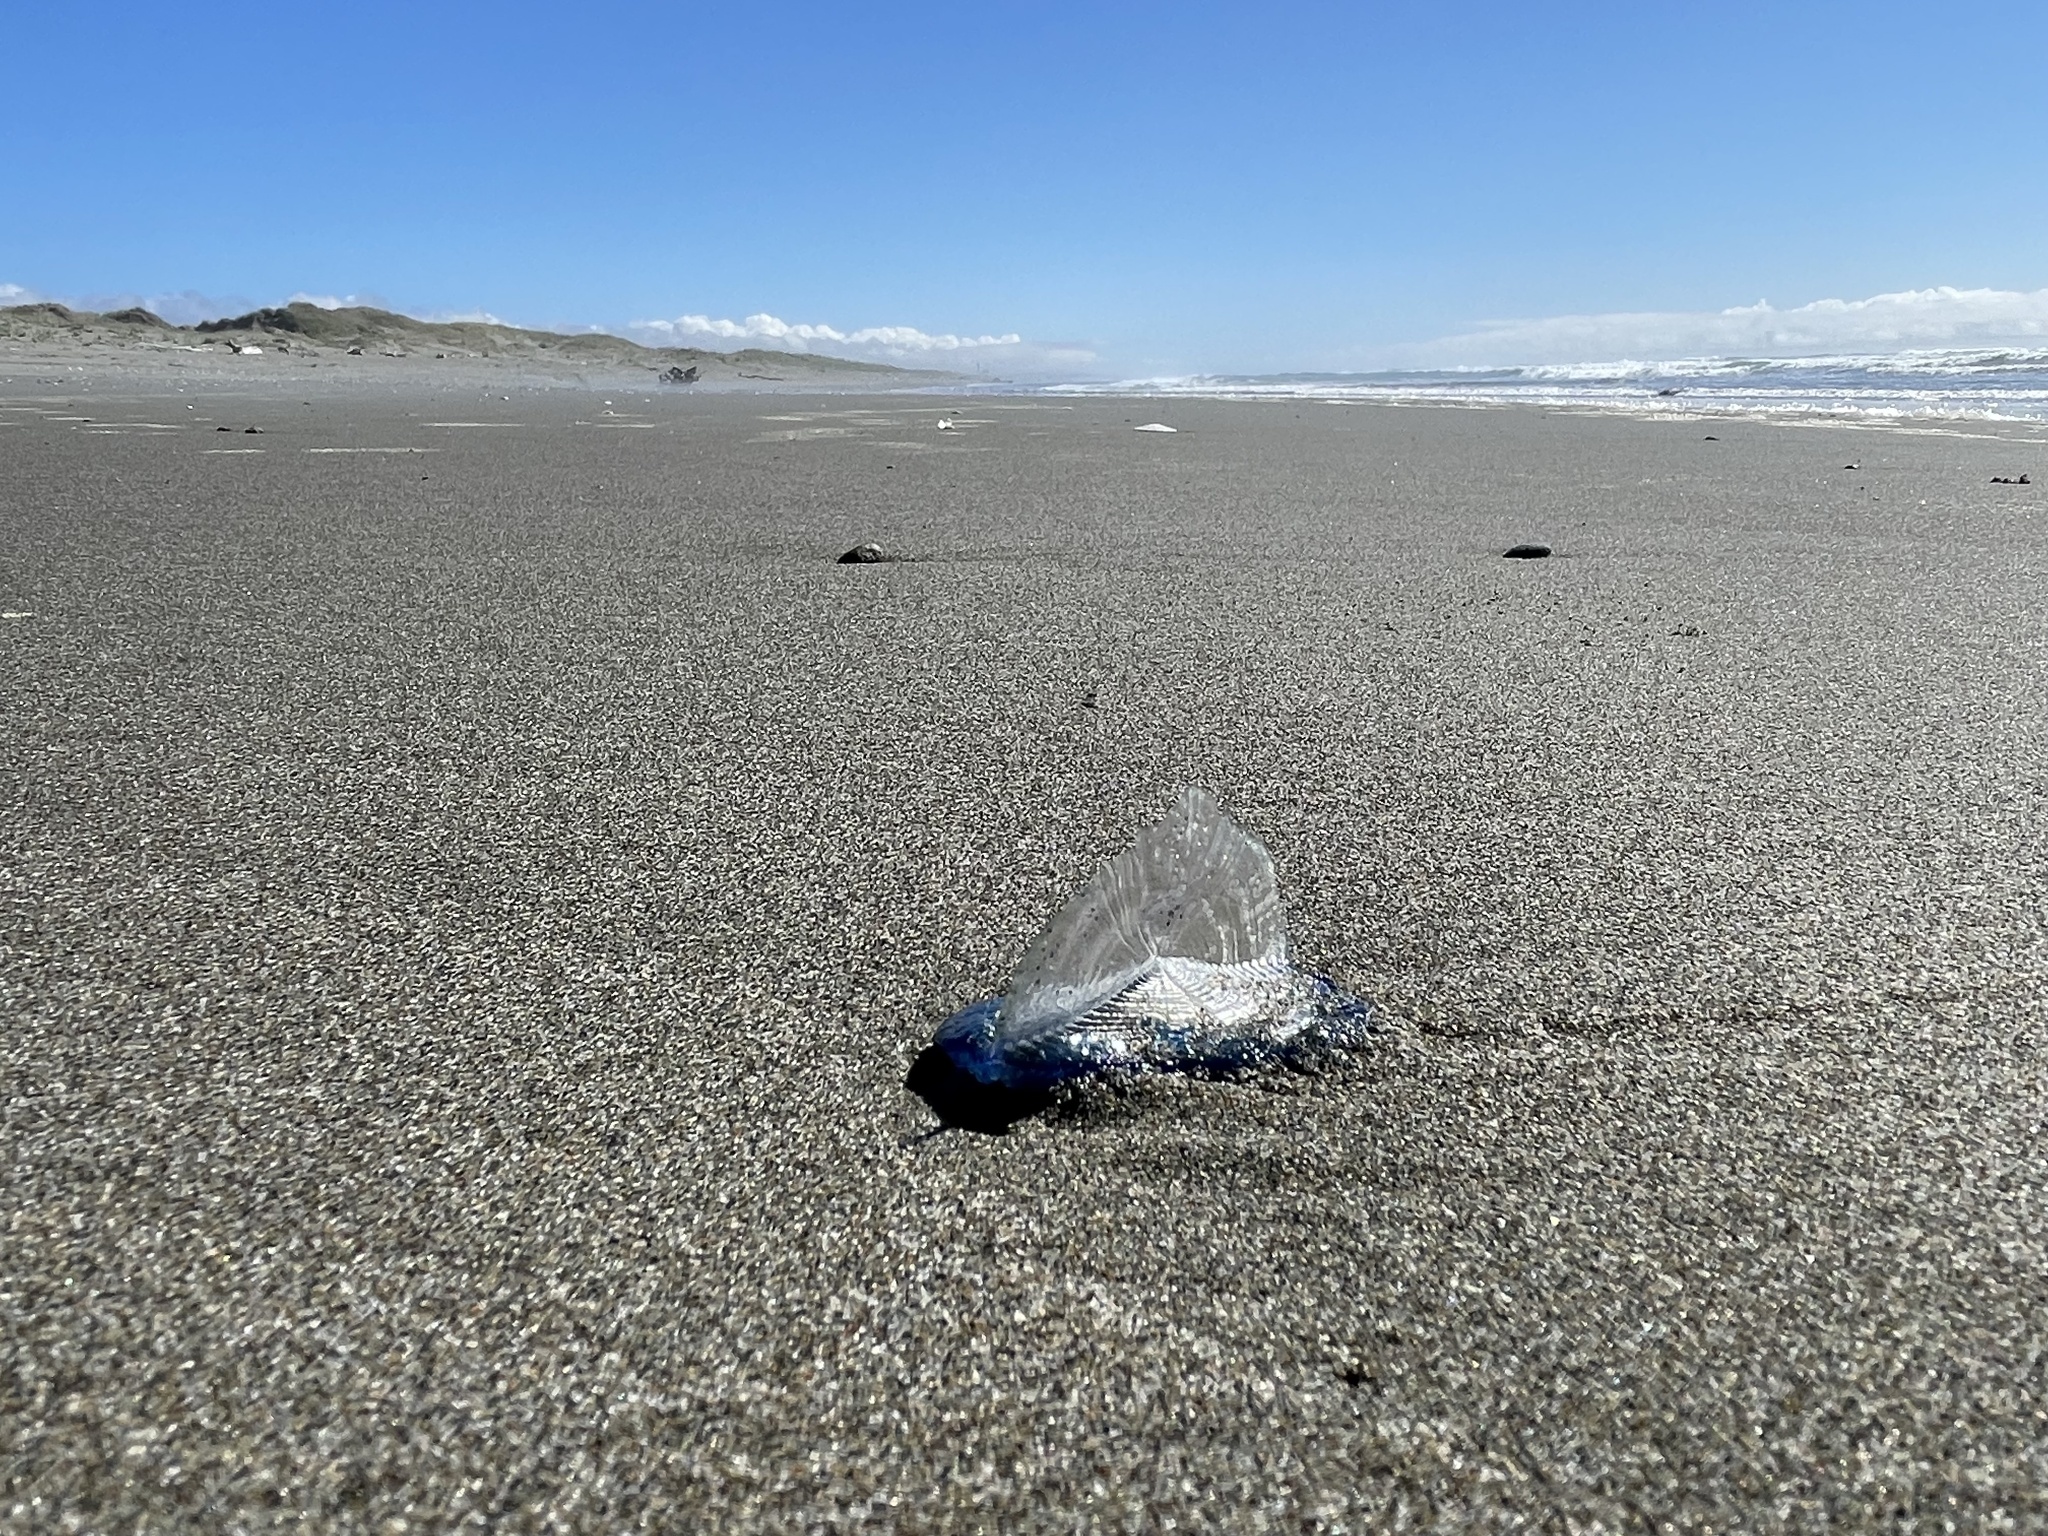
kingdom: Animalia
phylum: Cnidaria
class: Hydrozoa
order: Anthoathecata
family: Porpitidae
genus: Velella
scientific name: Velella velella
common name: By-the-wind-sailor
